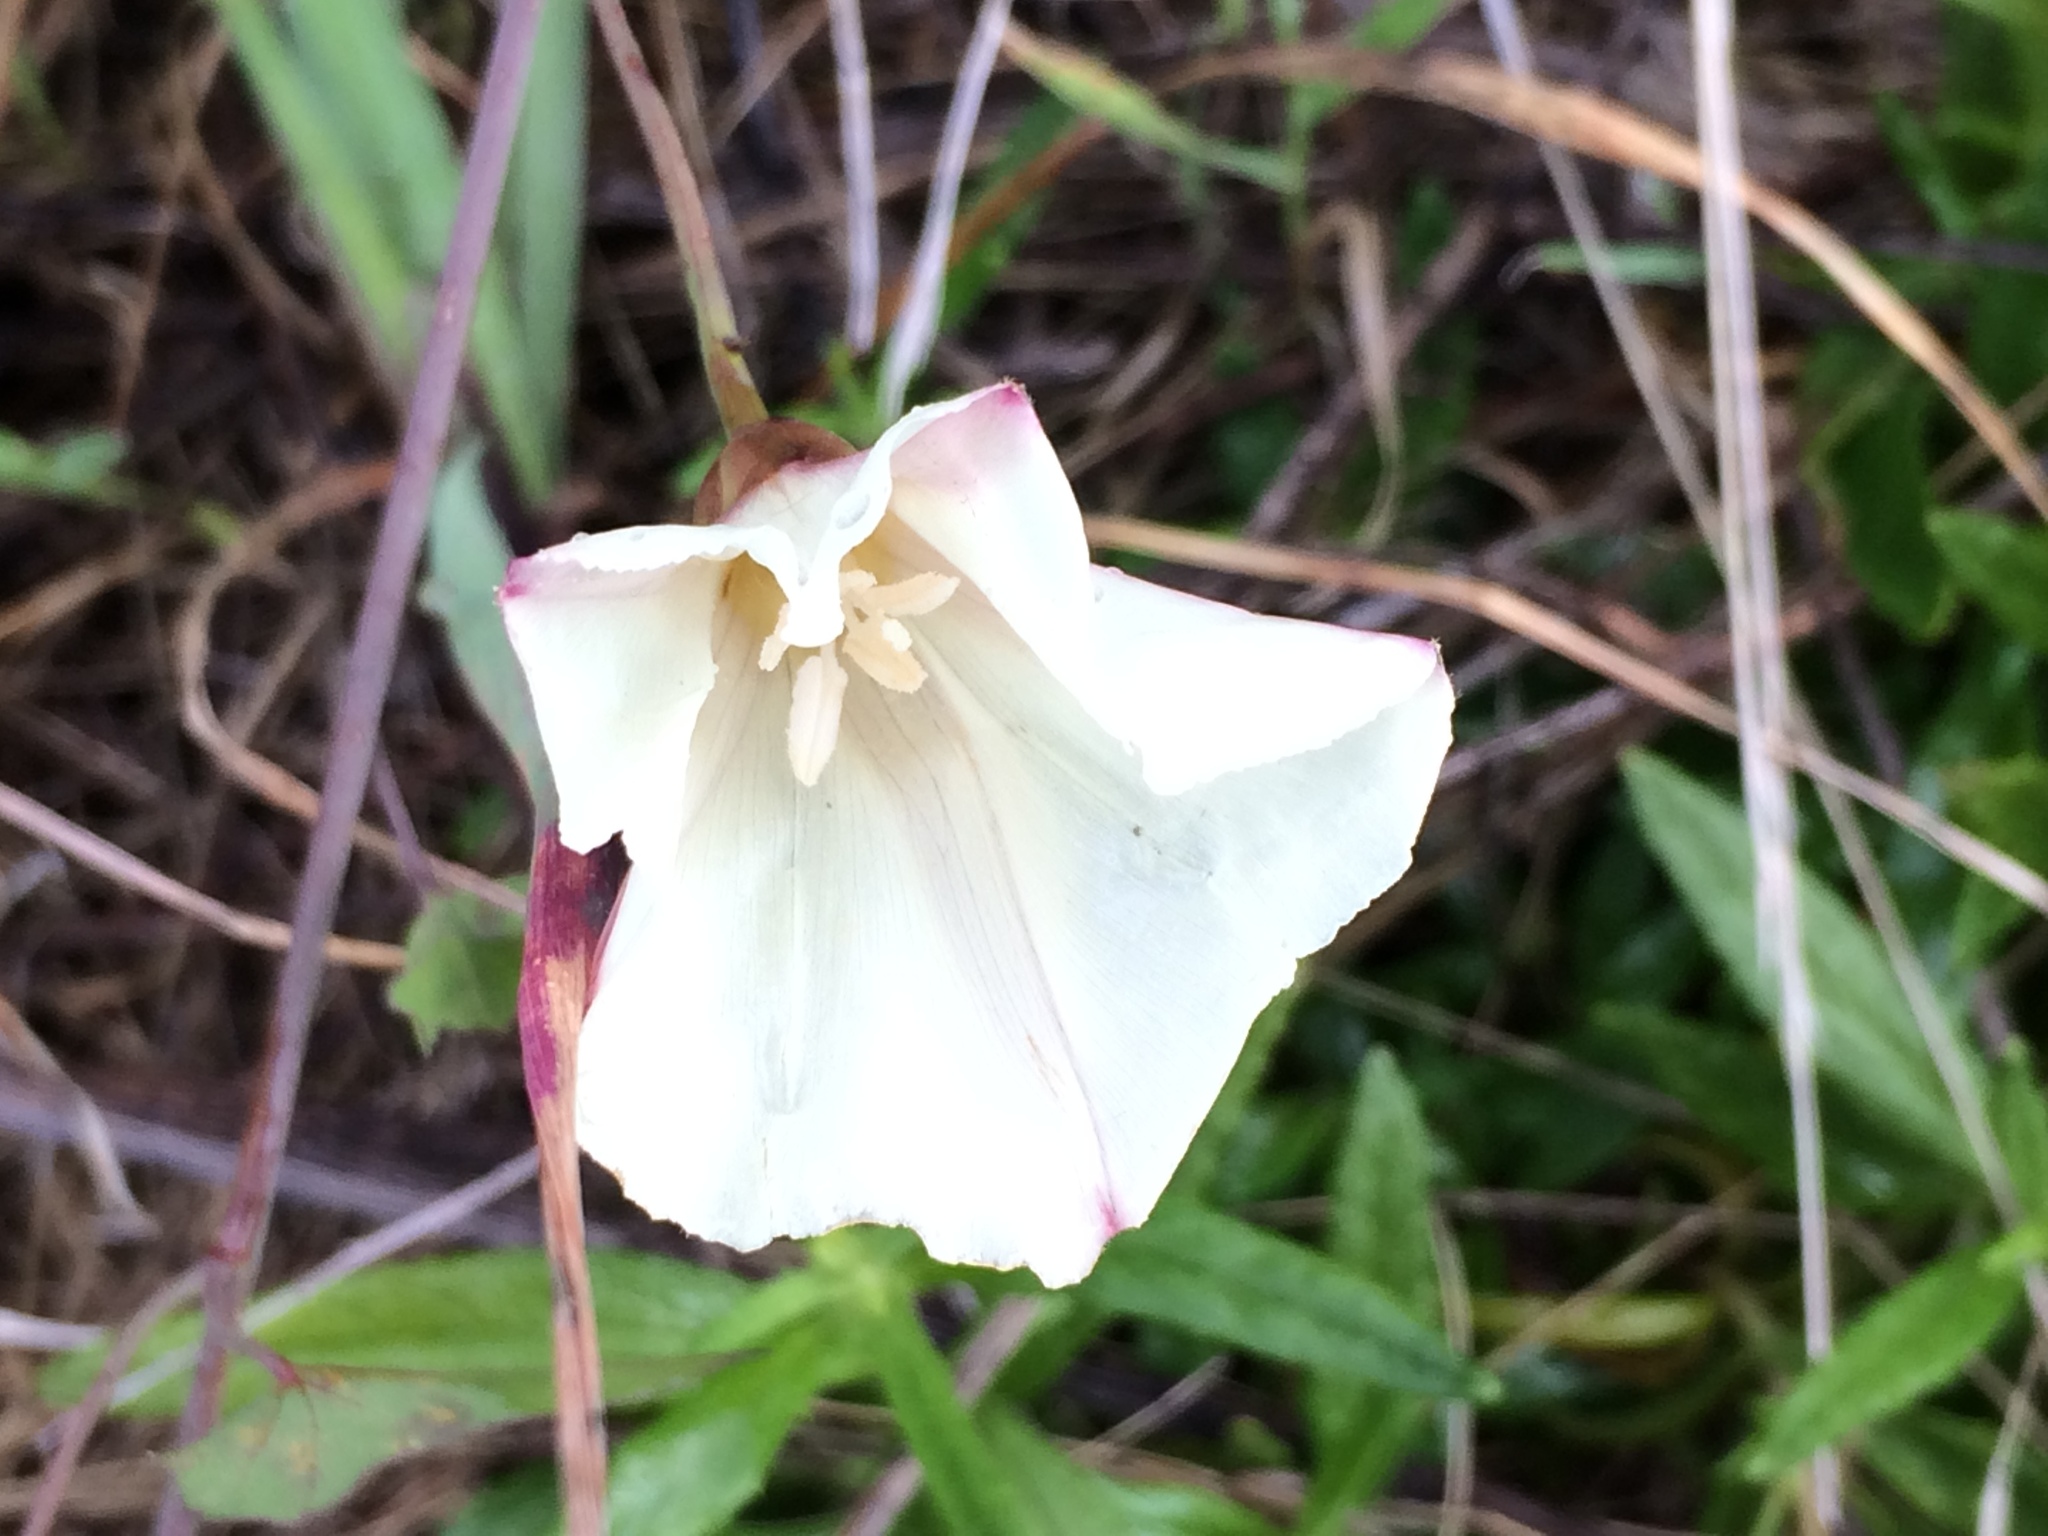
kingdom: Plantae
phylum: Tracheophyta
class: Magnoliopsida
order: Solanales
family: Convolvulaceae
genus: Calystegia
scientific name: Calystegia purpurata
